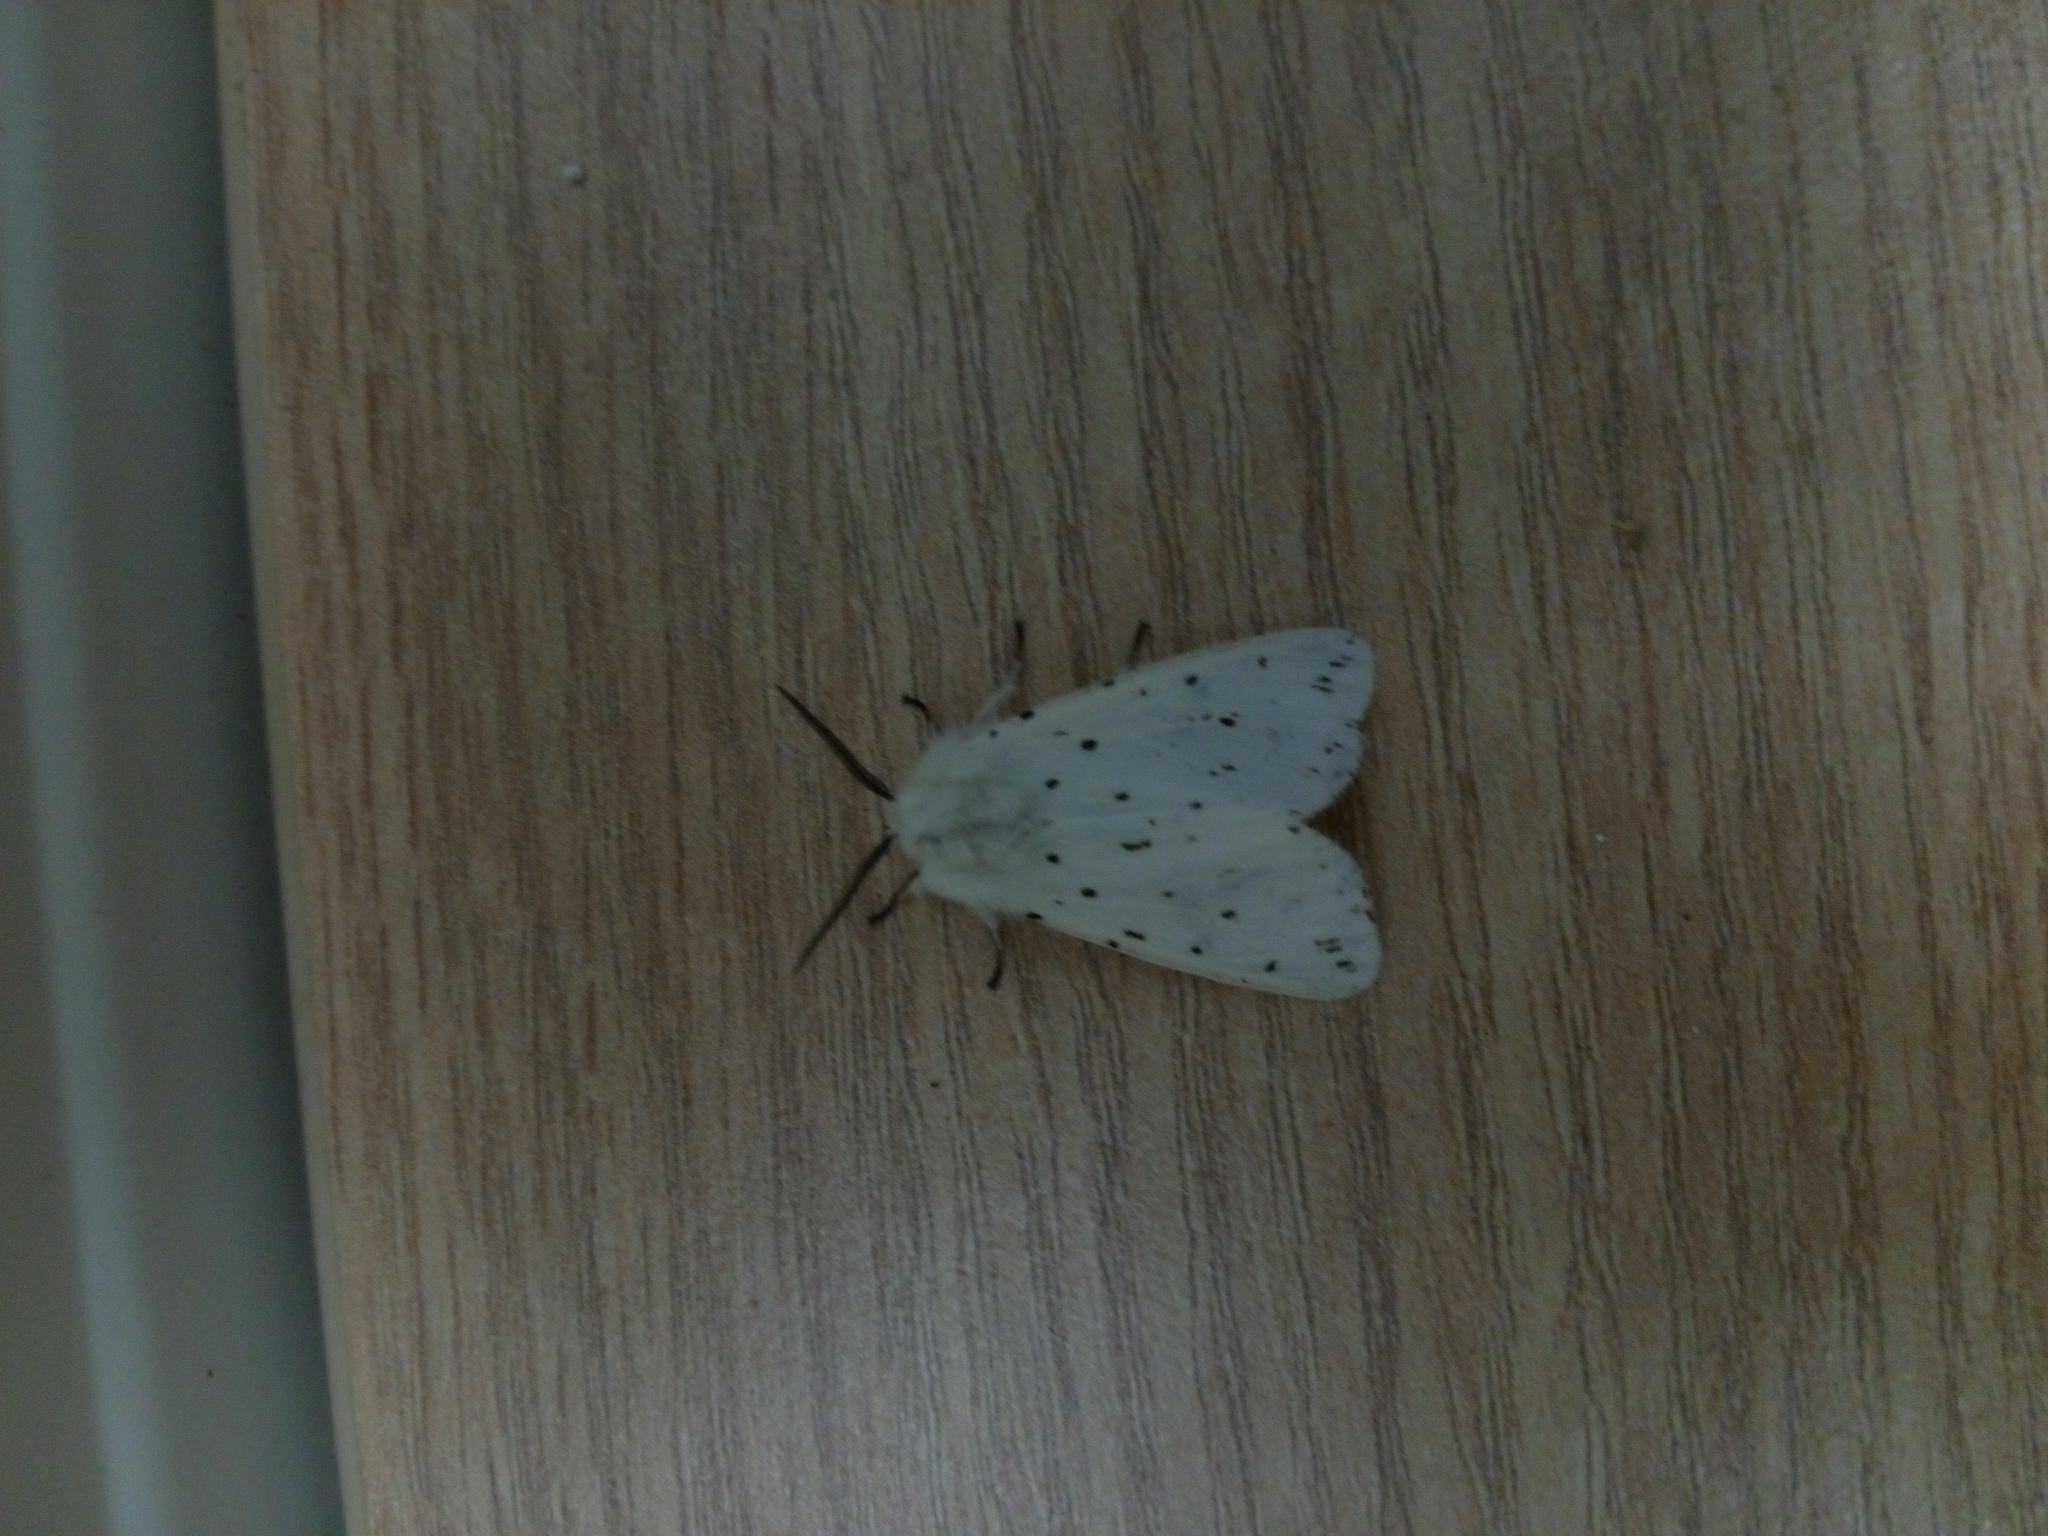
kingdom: Animalia
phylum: Arthropoda
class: Insecta
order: Lepidoptera
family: Erebidae
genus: Spilosoma
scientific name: Spilosoma lubricipeda
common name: White ermine
